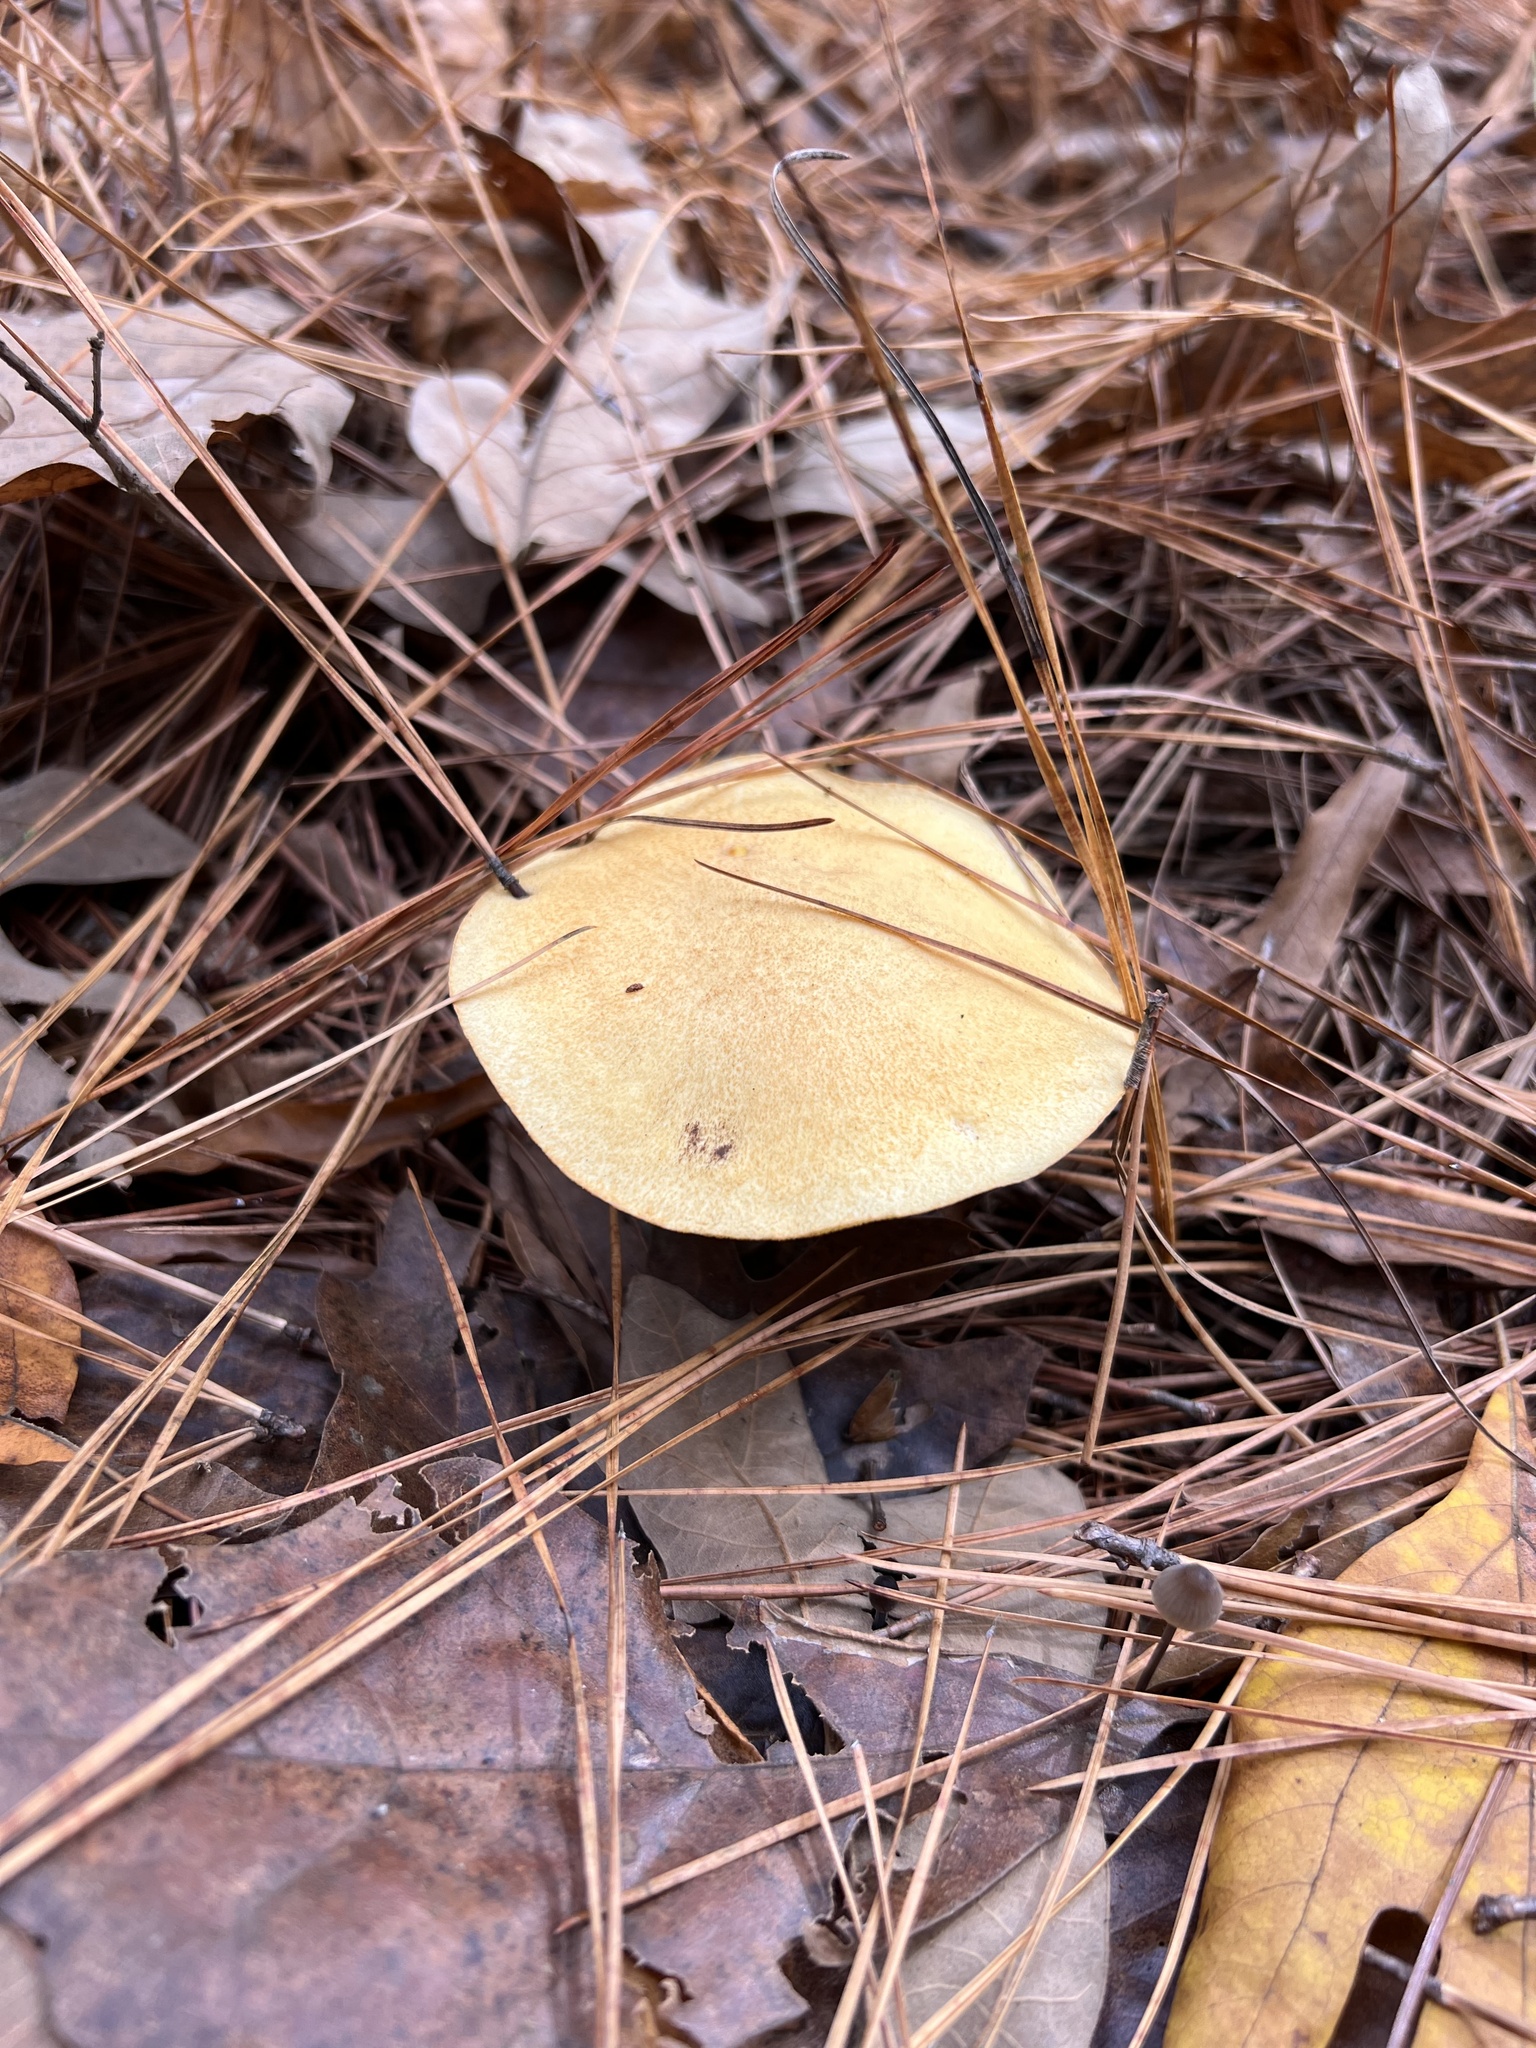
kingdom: Fungi
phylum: Basidiomycota
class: Agaricomycetes
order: Boletales
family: Suillaceae
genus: Suillus
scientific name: Suillus hirtellus
